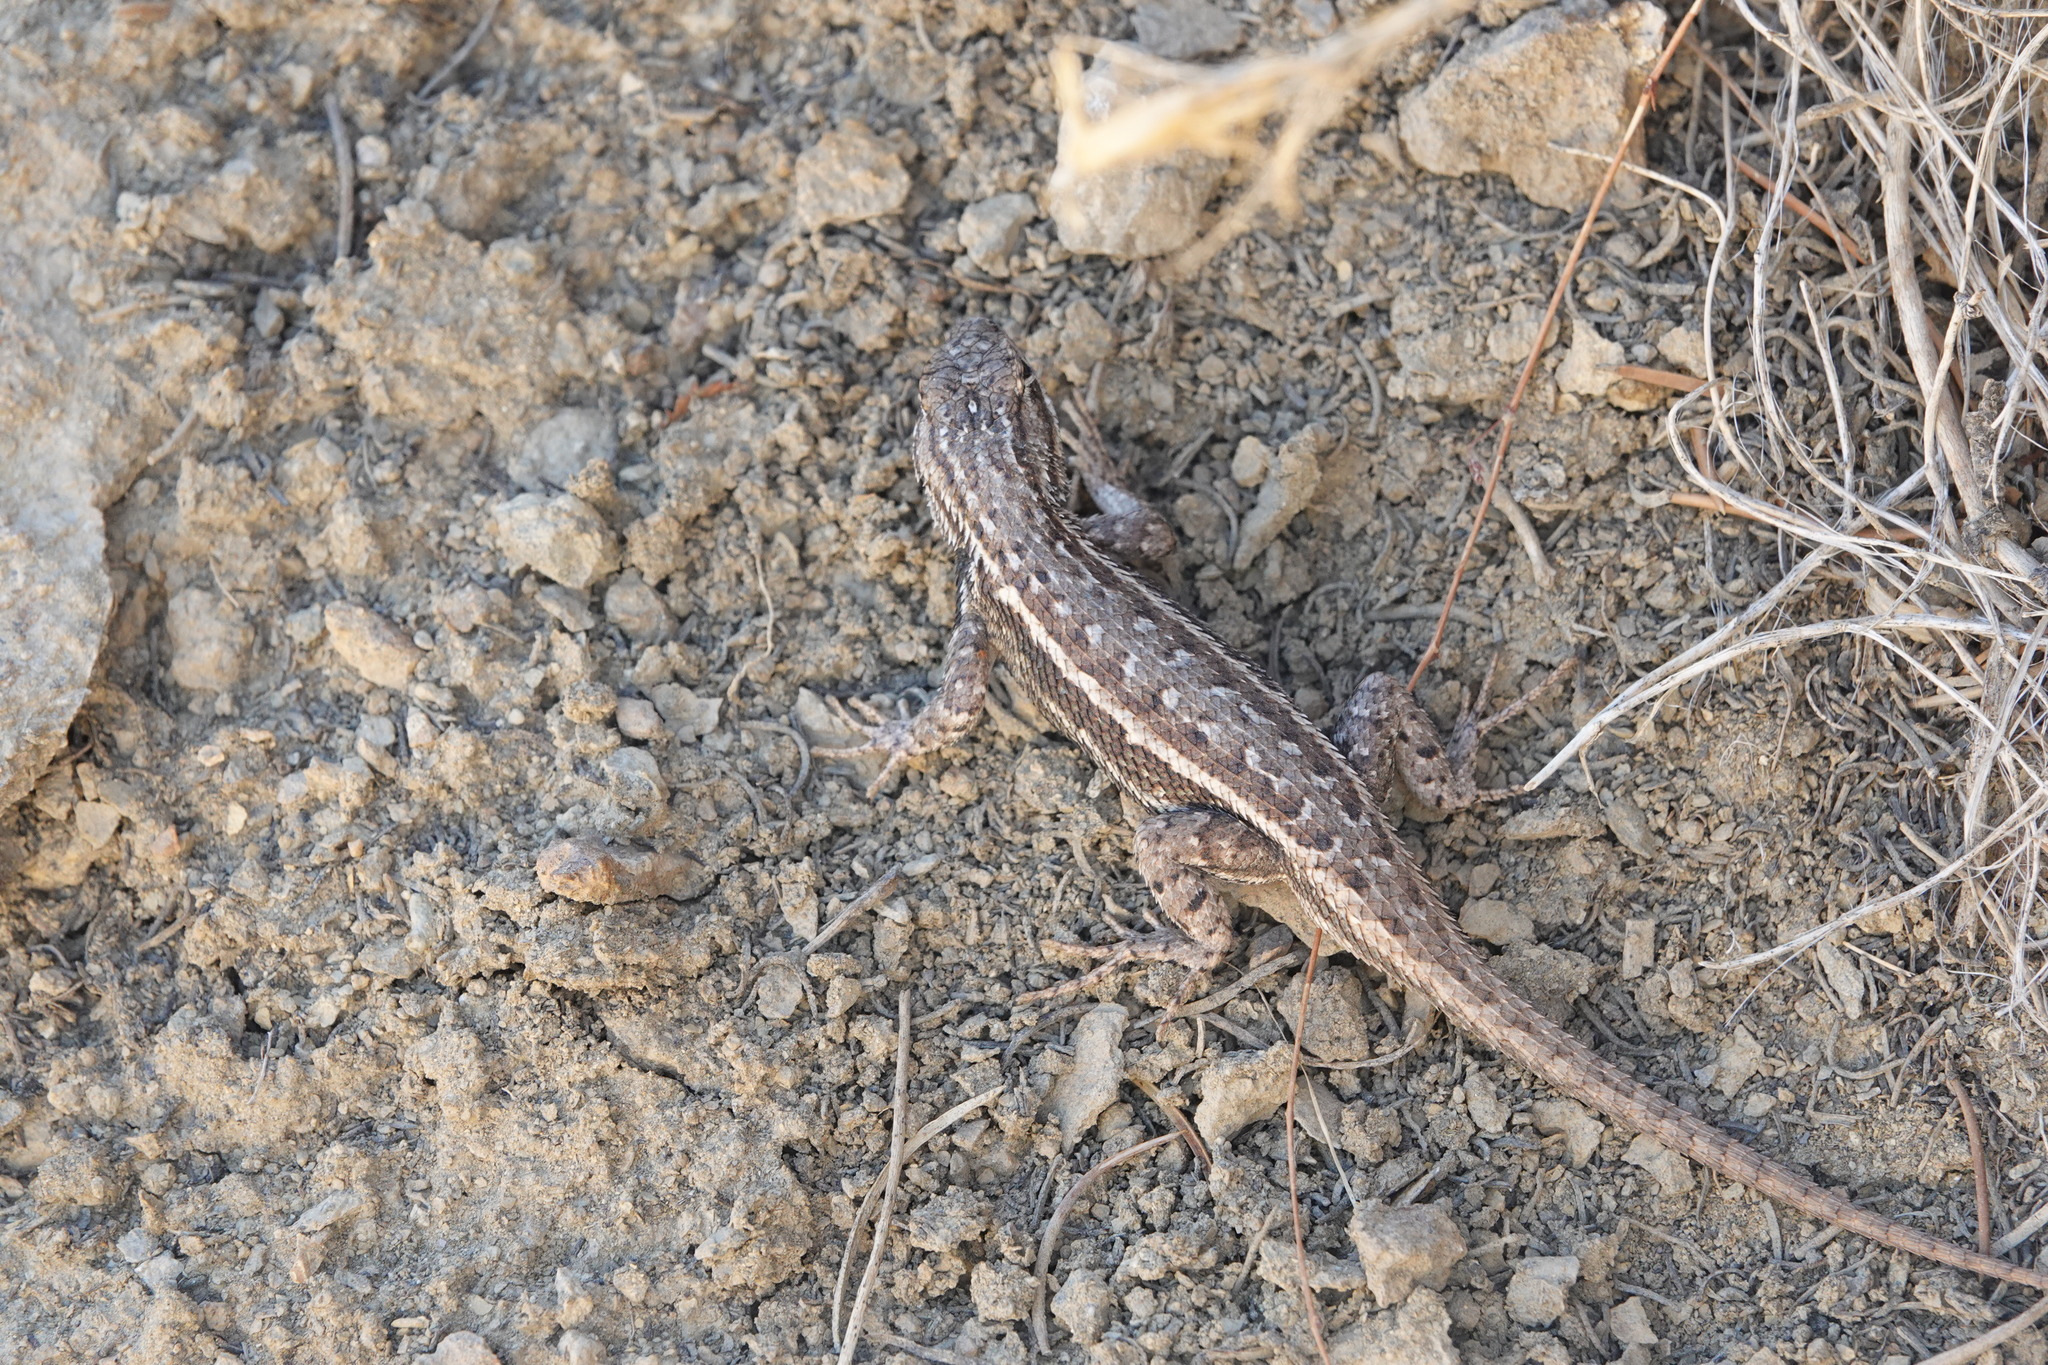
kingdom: Animalia
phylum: Chordata
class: Squamata
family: Phrynosomatidae
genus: Sceloporus
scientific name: Sceloporus tristichus
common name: Plateau fence lizard
